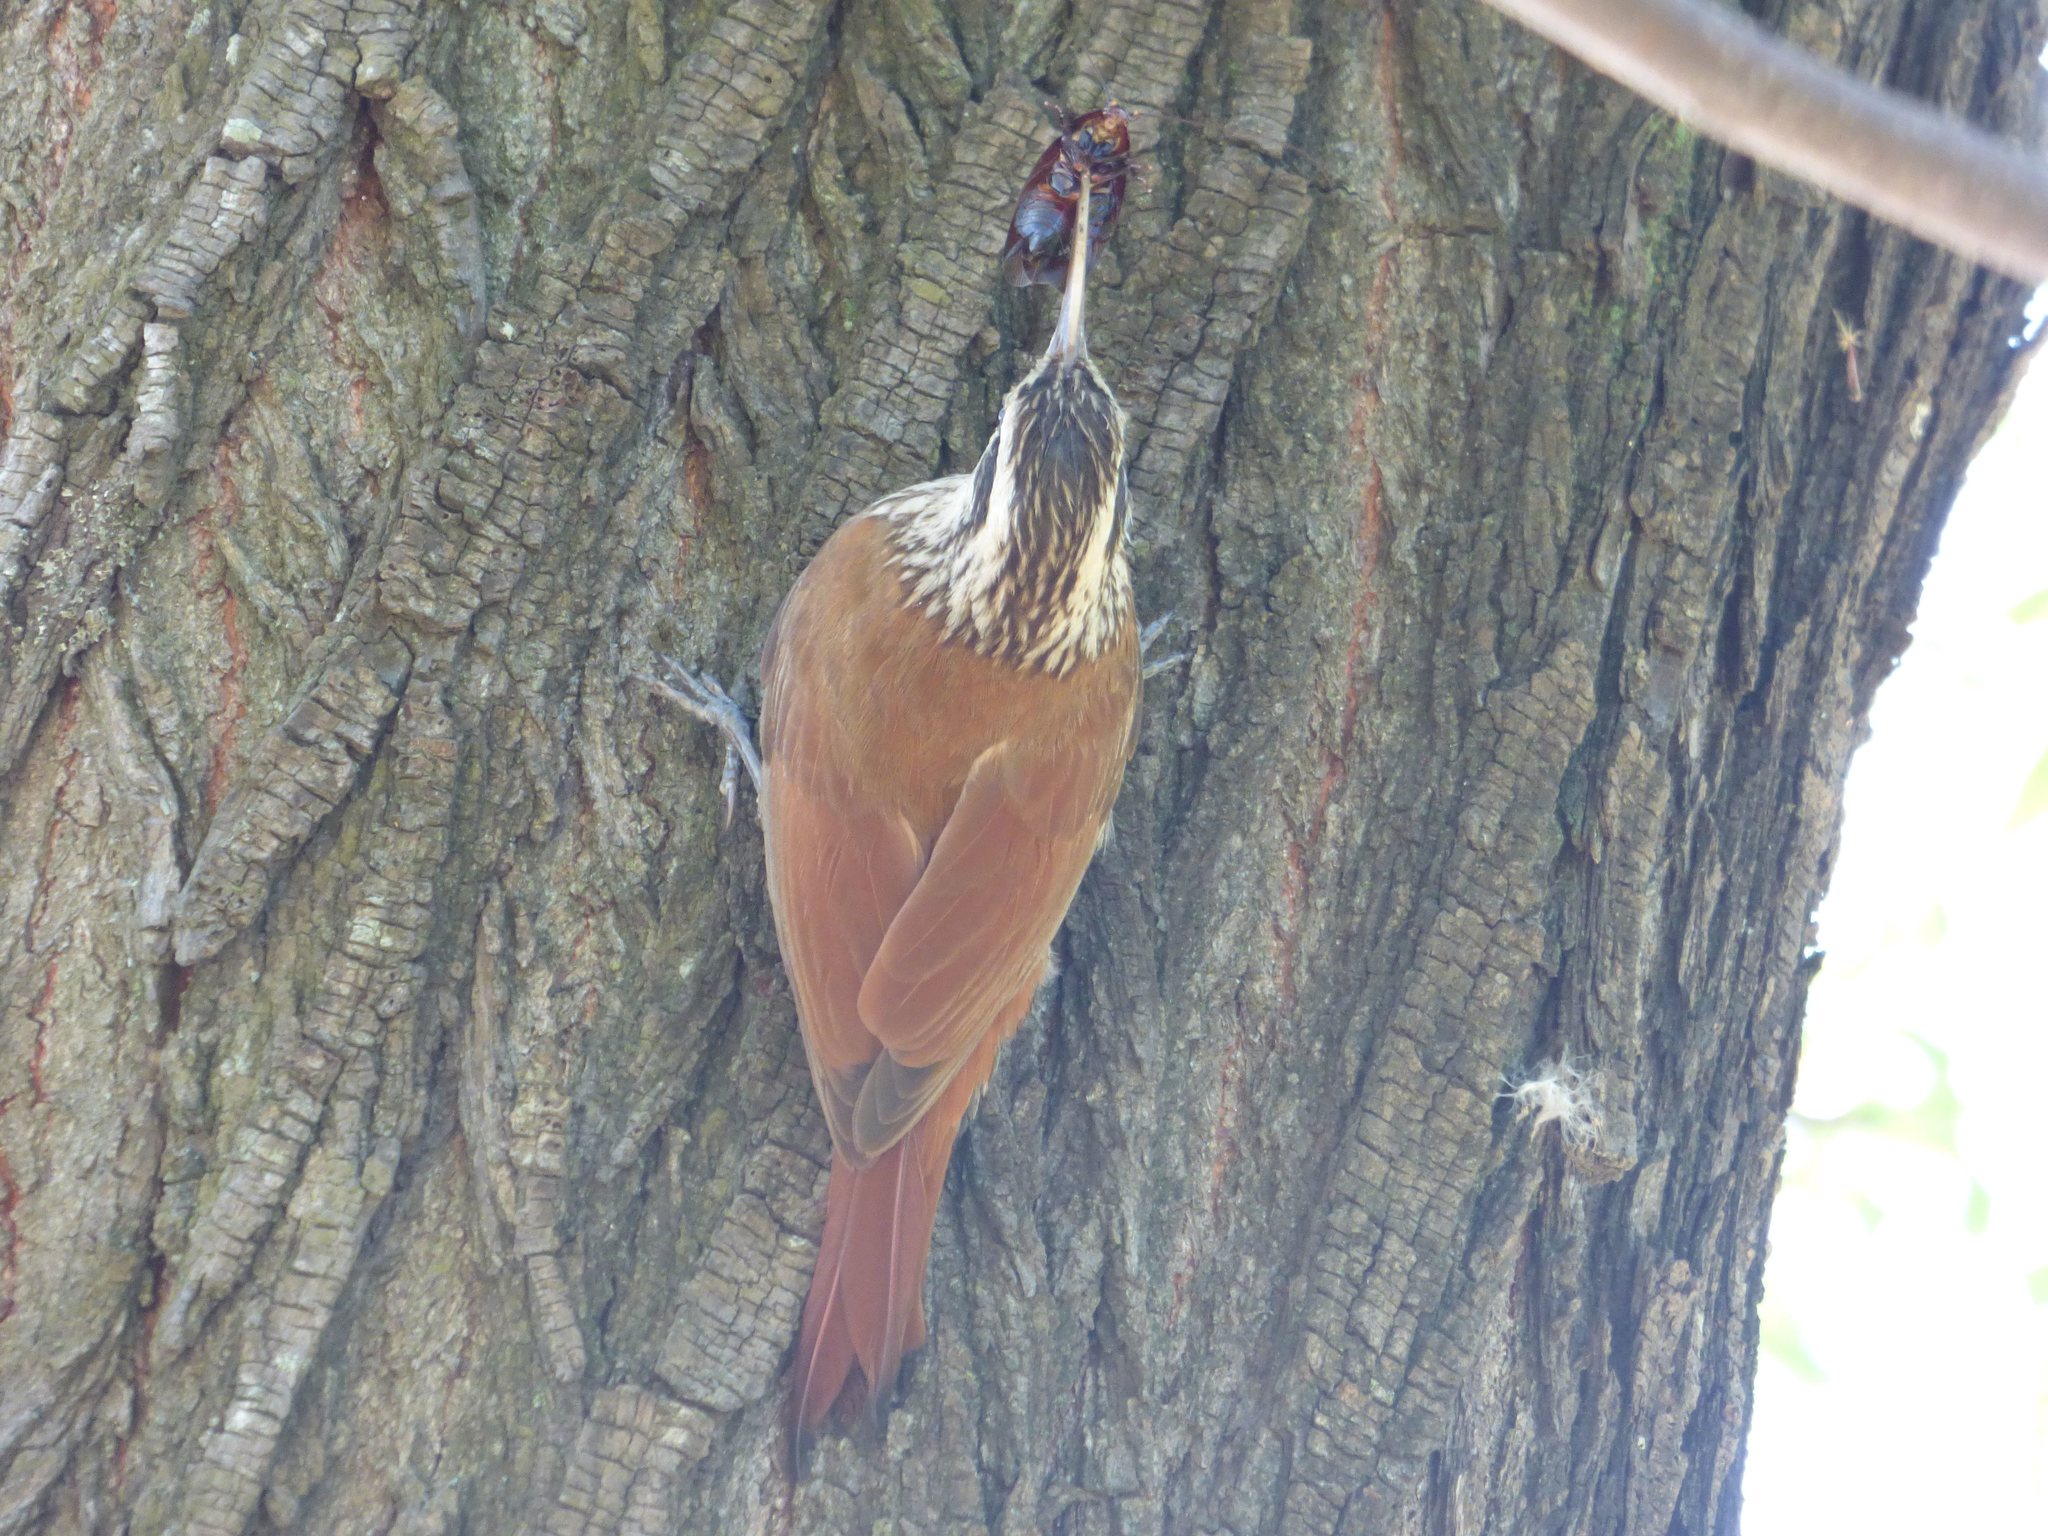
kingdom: Animalia
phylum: Chordata
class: Aves
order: Passeriformes
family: Furnariidae
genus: Lepidocolaptes
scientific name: Lepidocolaptes angustirostris
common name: Narrow-billed woodcreeper
